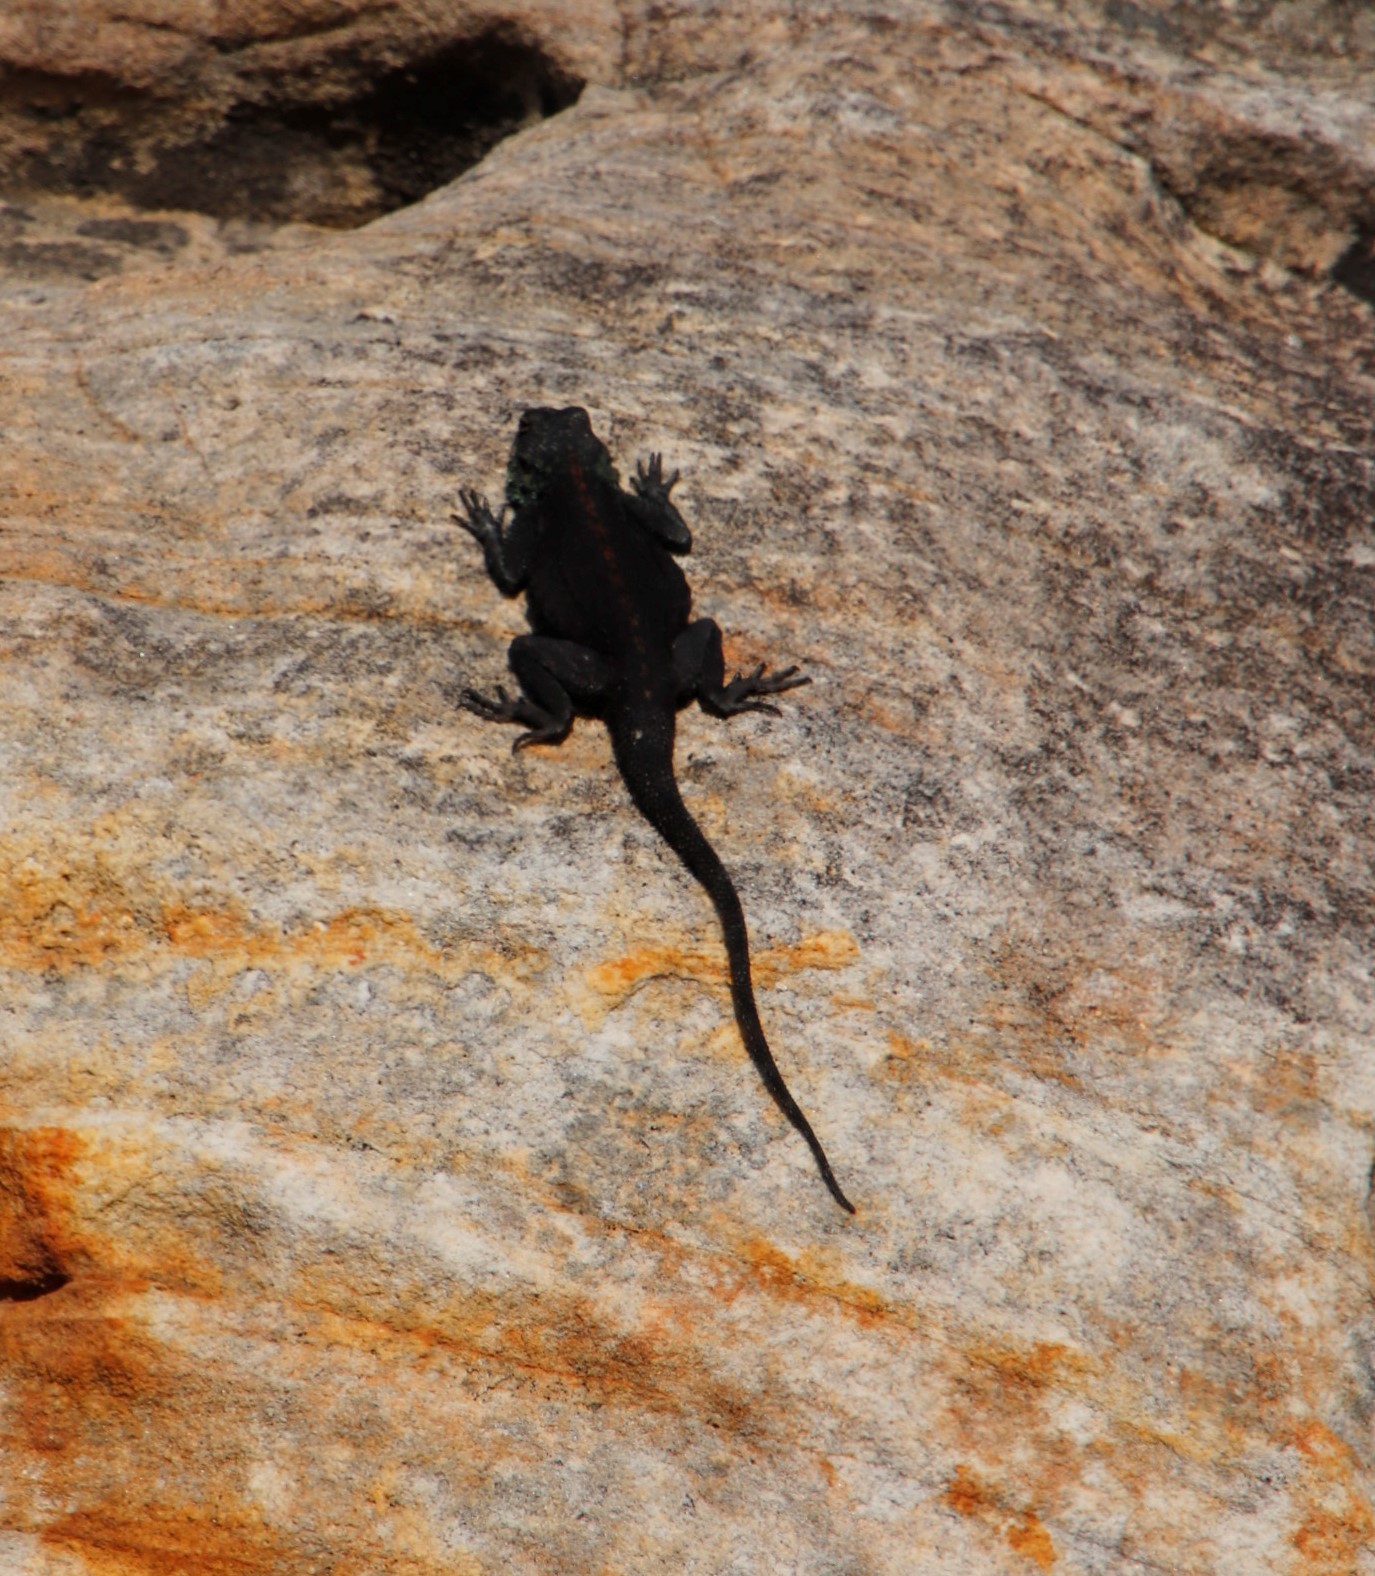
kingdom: Animalia
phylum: Chordata
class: Squamata
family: Agamidae
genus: Agama
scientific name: Agama atra
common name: Southern african rock agama
